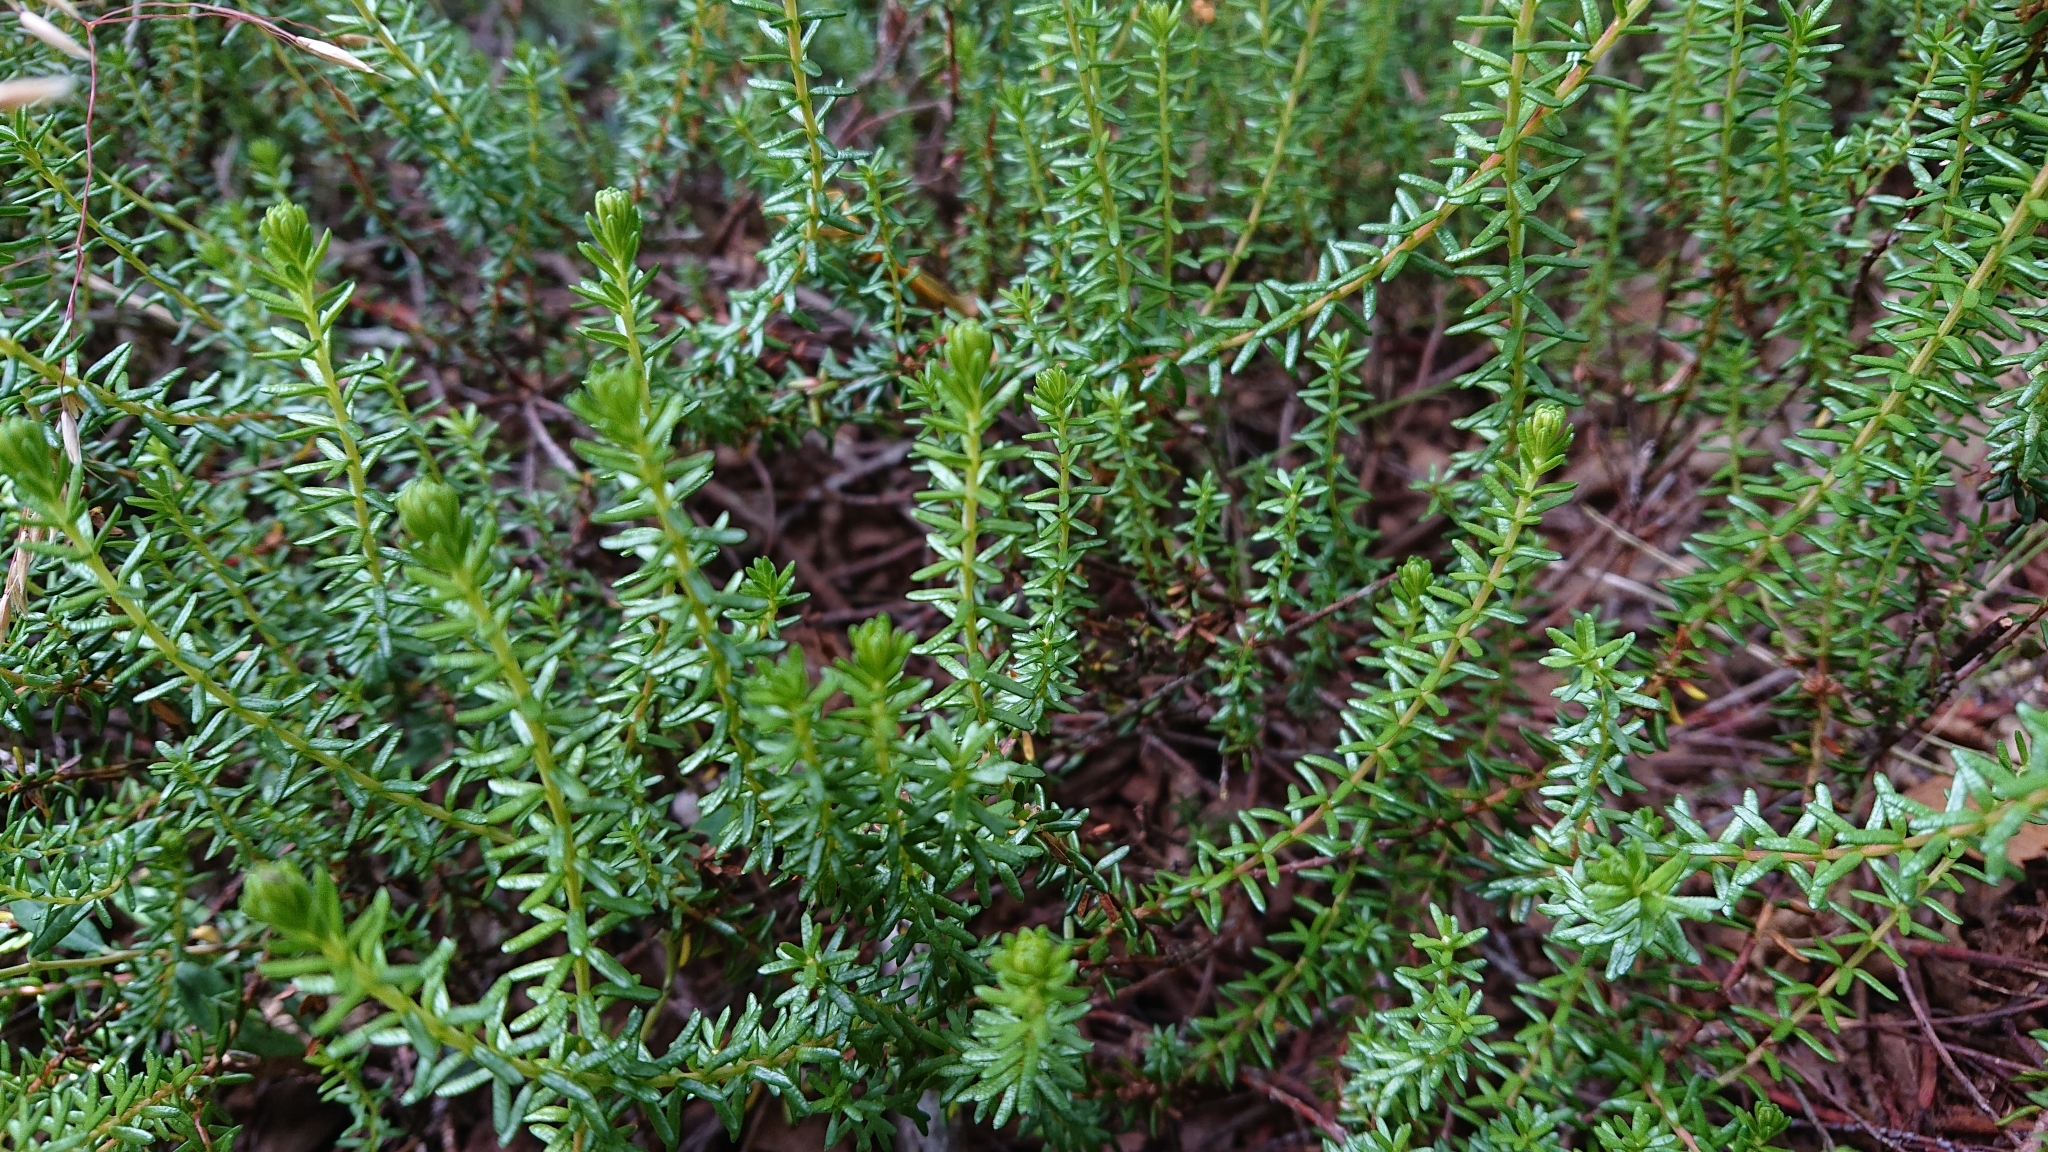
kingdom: Plantae
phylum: Tracheophyta
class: Magnoliopsida
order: Ericales
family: Ericaceae
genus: Empetrum
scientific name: Empetrum nigrum
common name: Black crowberry
